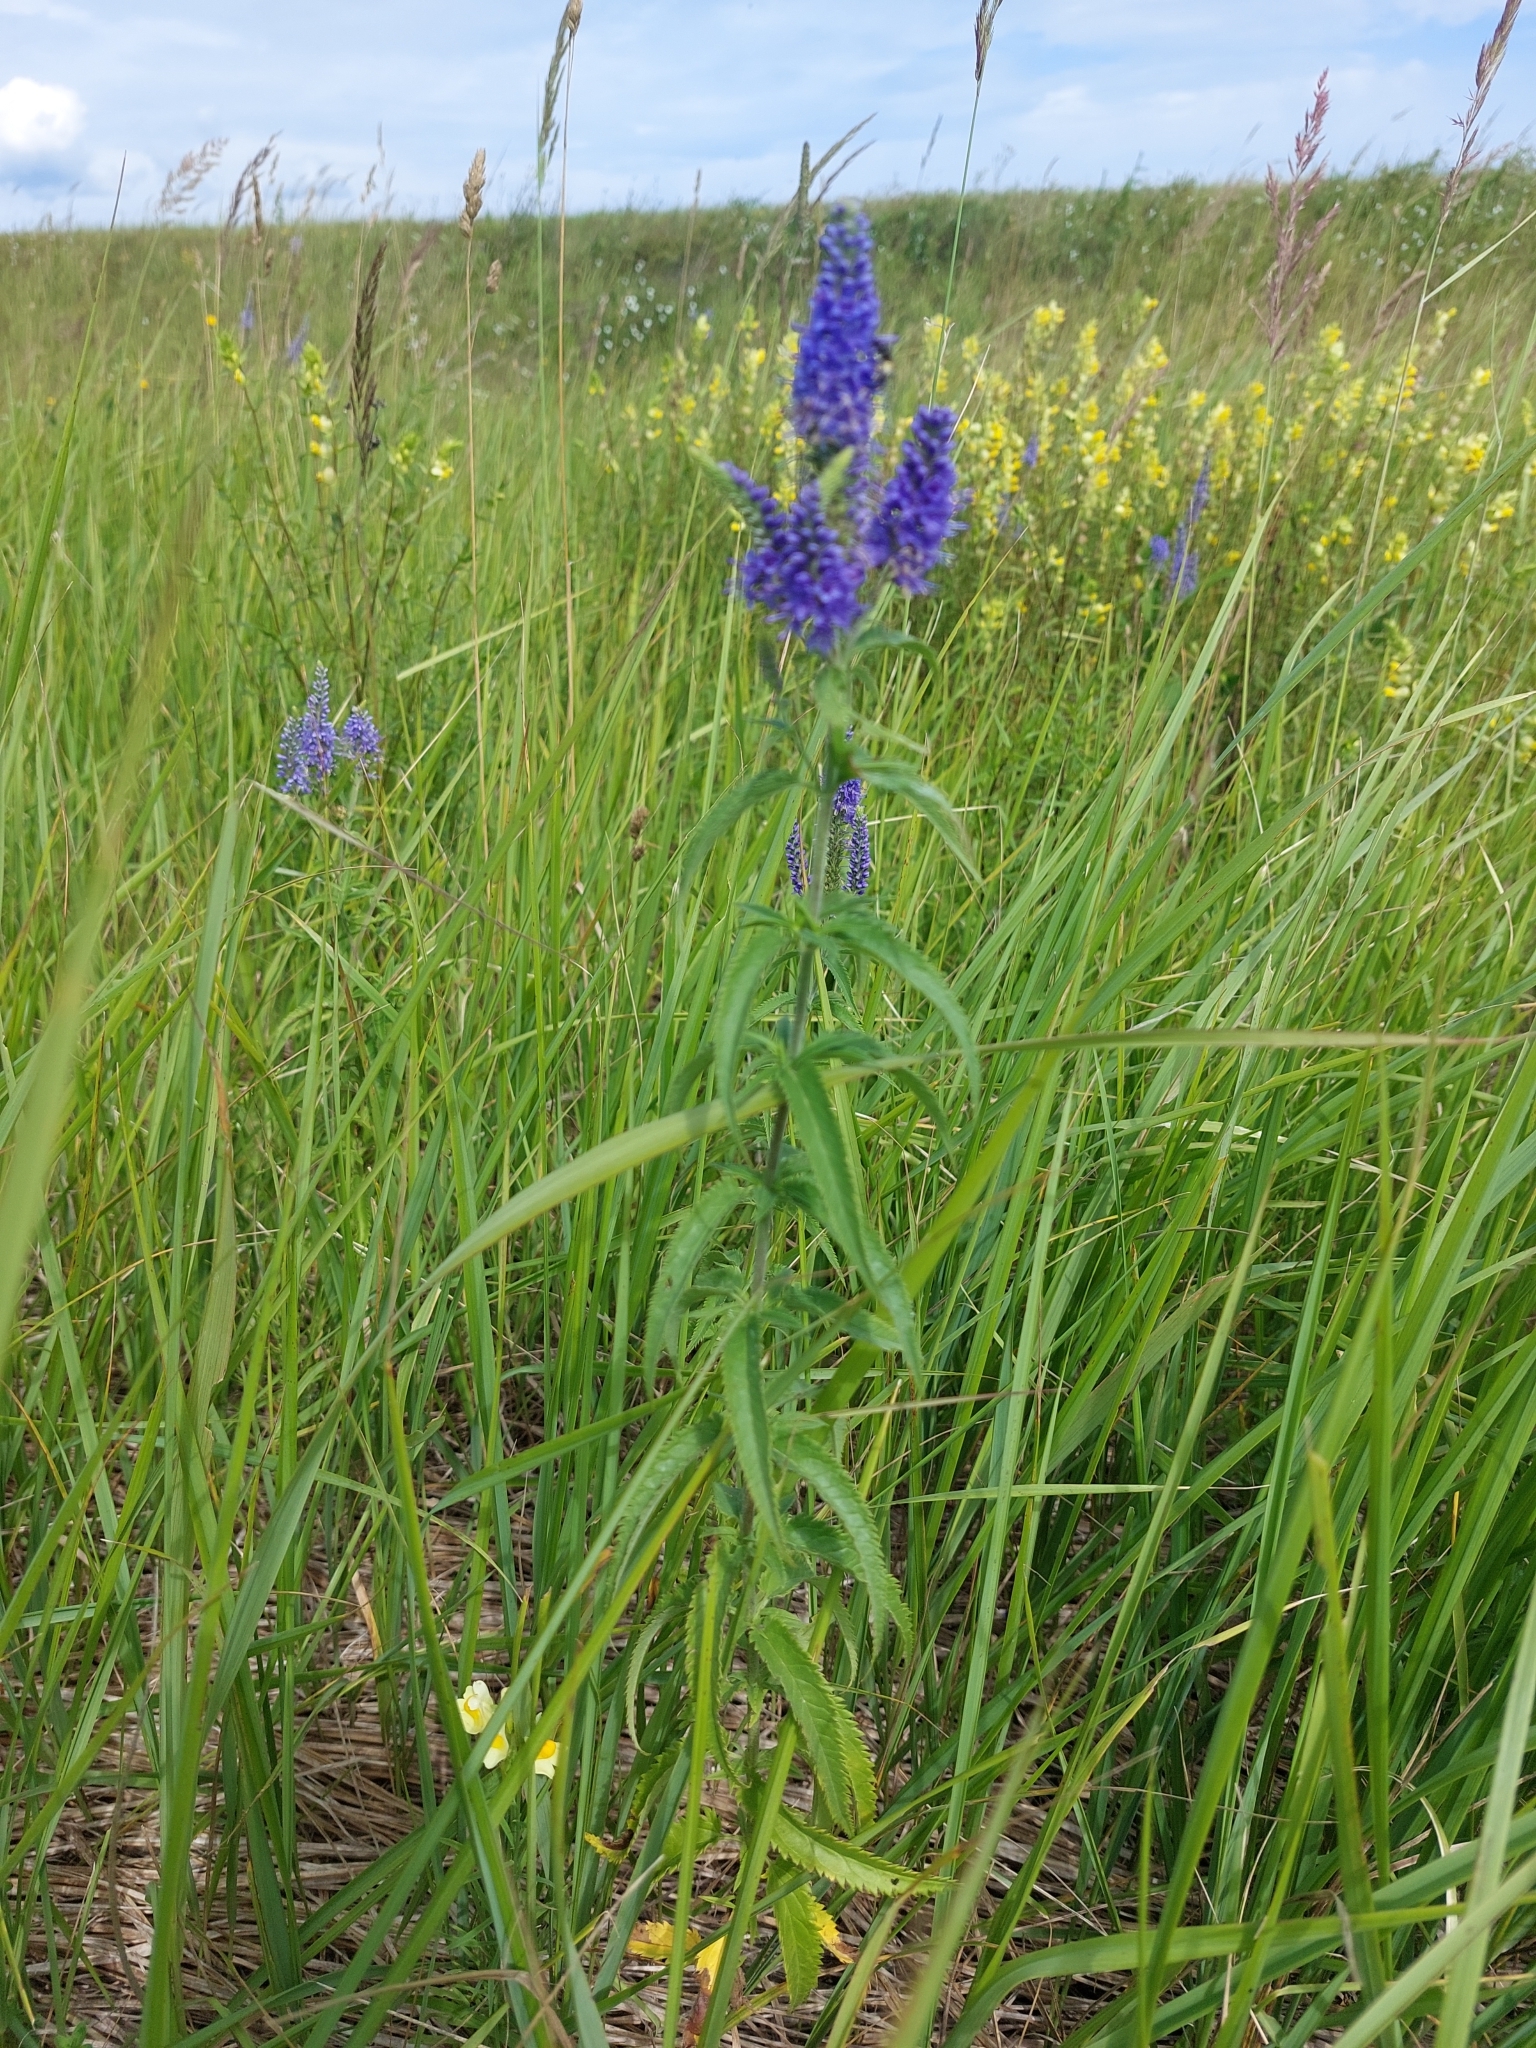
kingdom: Plantae
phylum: Tracheophyta
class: Magnoliopsida
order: Lamiales
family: Plantaginaceae
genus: Veronica
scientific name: Veronica longifolia
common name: Garden speedwell
